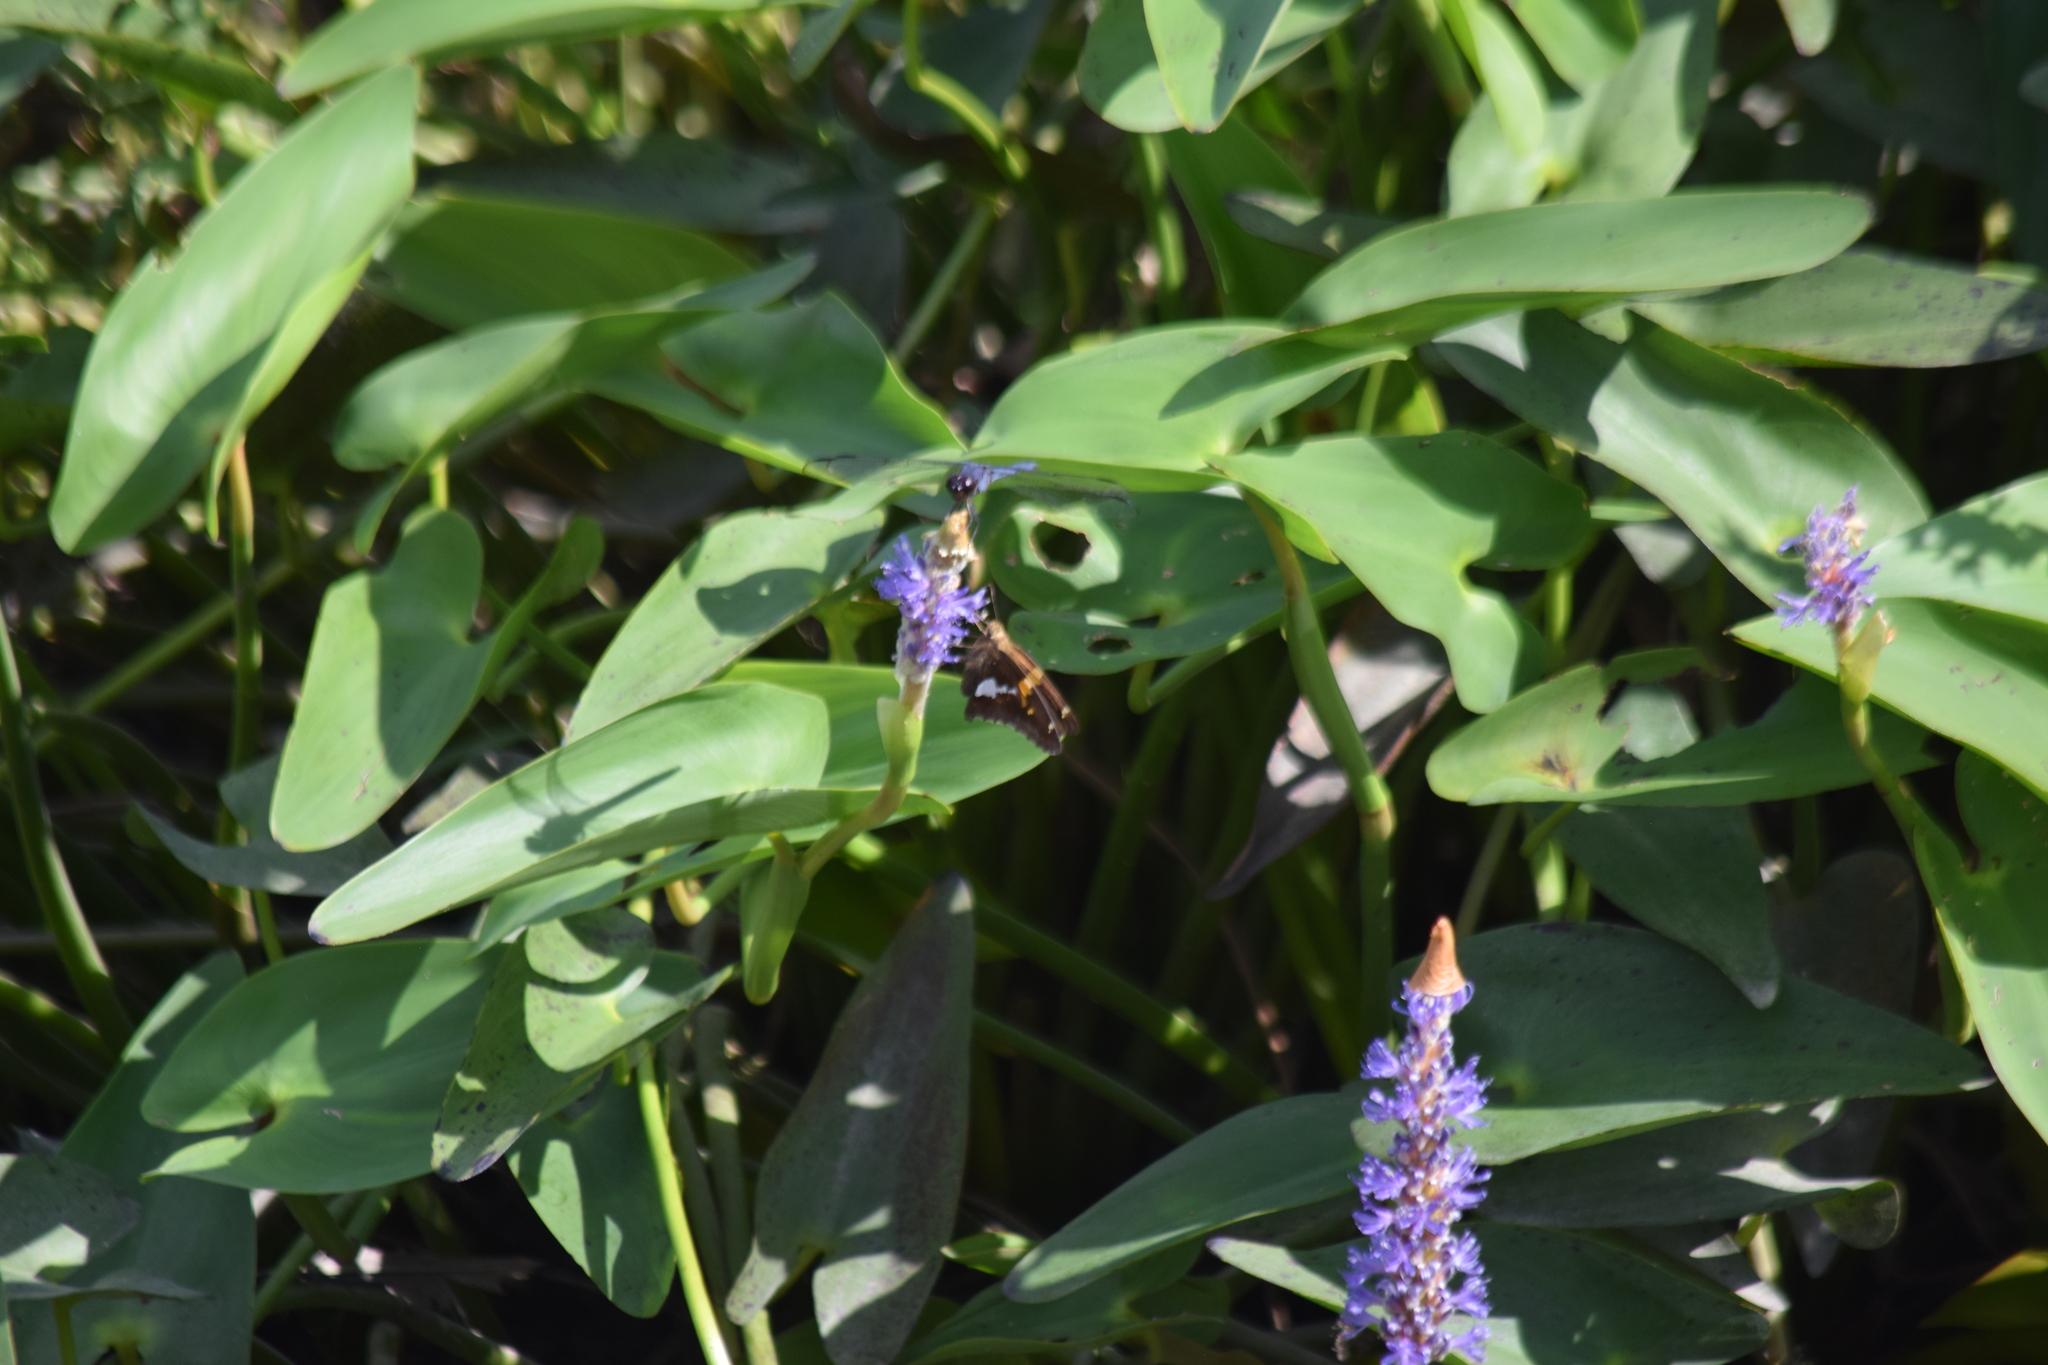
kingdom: Animalia
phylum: Arthropoda
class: Insecta
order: Lepidoptera
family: Hesperiidae
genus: Epargyreus
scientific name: Epargyreus clarus
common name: Silver-spotted skipper
